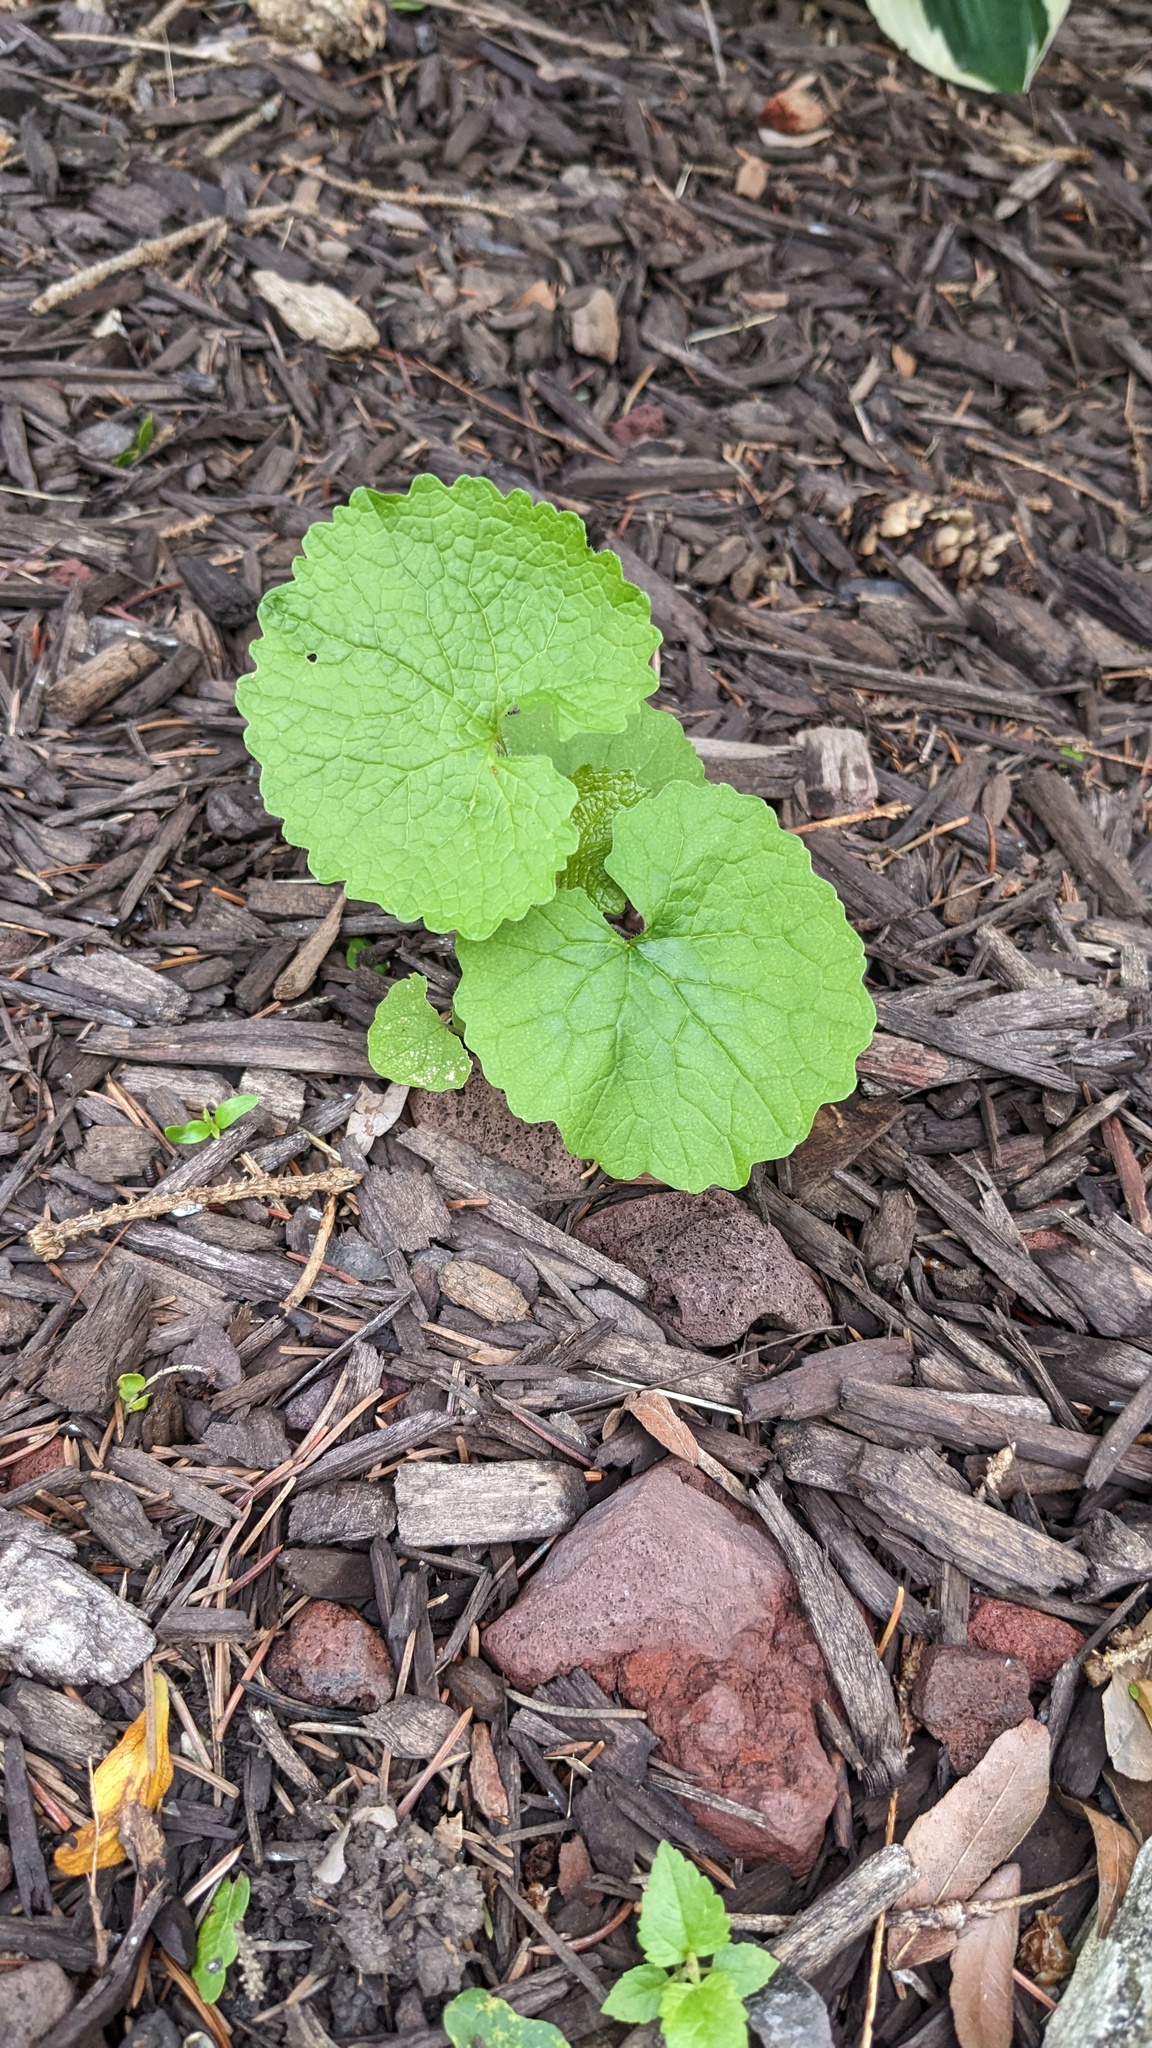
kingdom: Plantae
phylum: Tracheophyta
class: Magnoliopsida
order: Brassicales
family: Brassicaceae
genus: Alliaria
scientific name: Alliaria petiolata
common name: Garlic mustard
